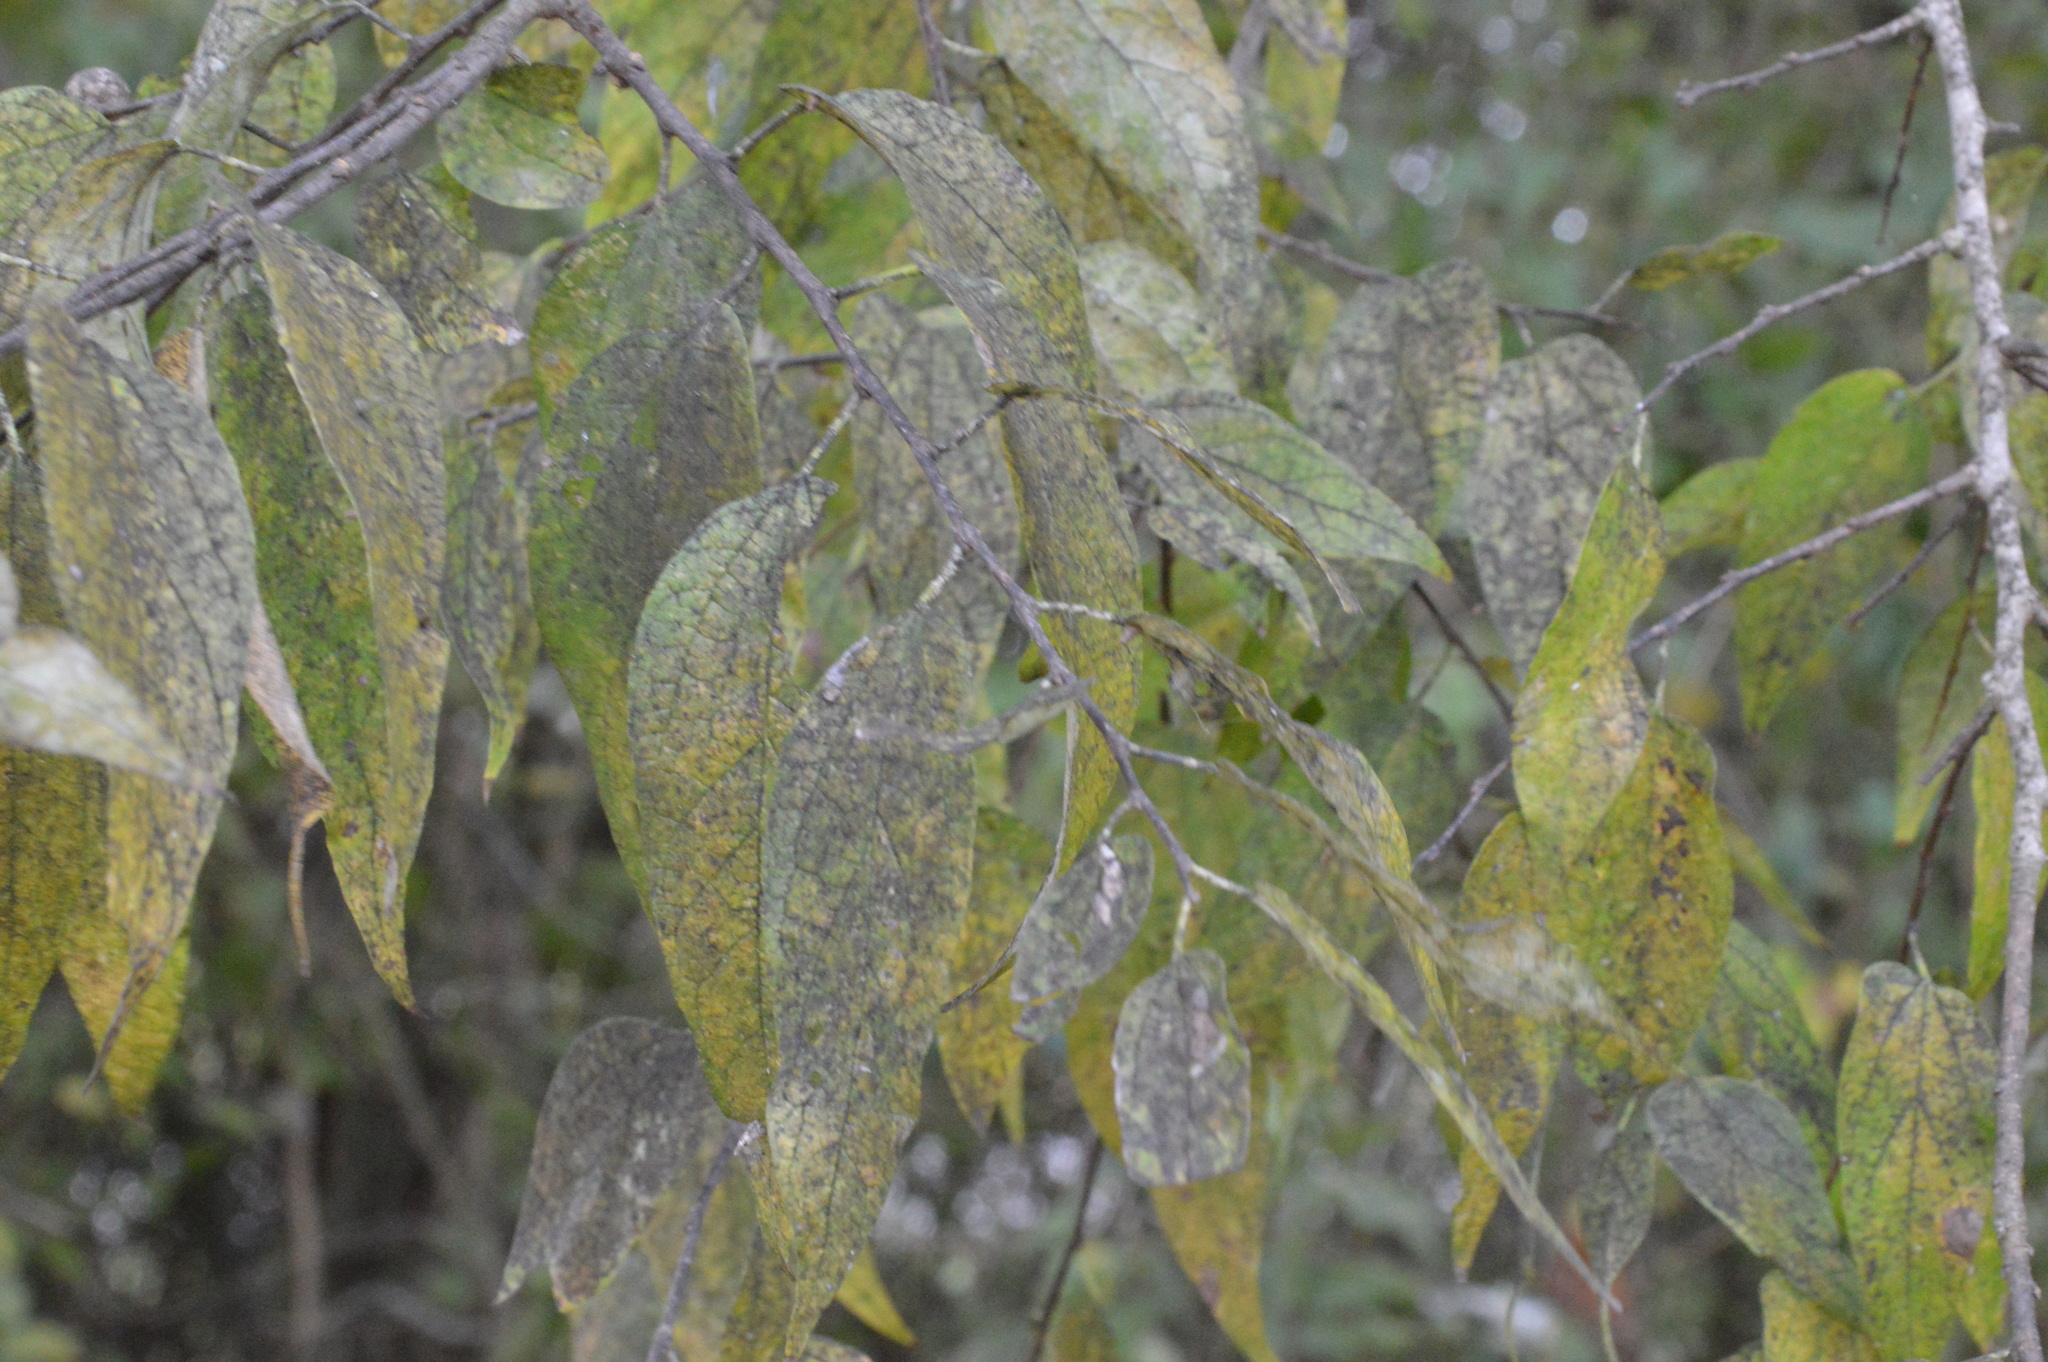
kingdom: Plantae
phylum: Tracheophyta
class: Magnoliopsida
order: Rosales
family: Cannabaceae
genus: Celtis
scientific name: Celtis laevigata
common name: Sugarberry
